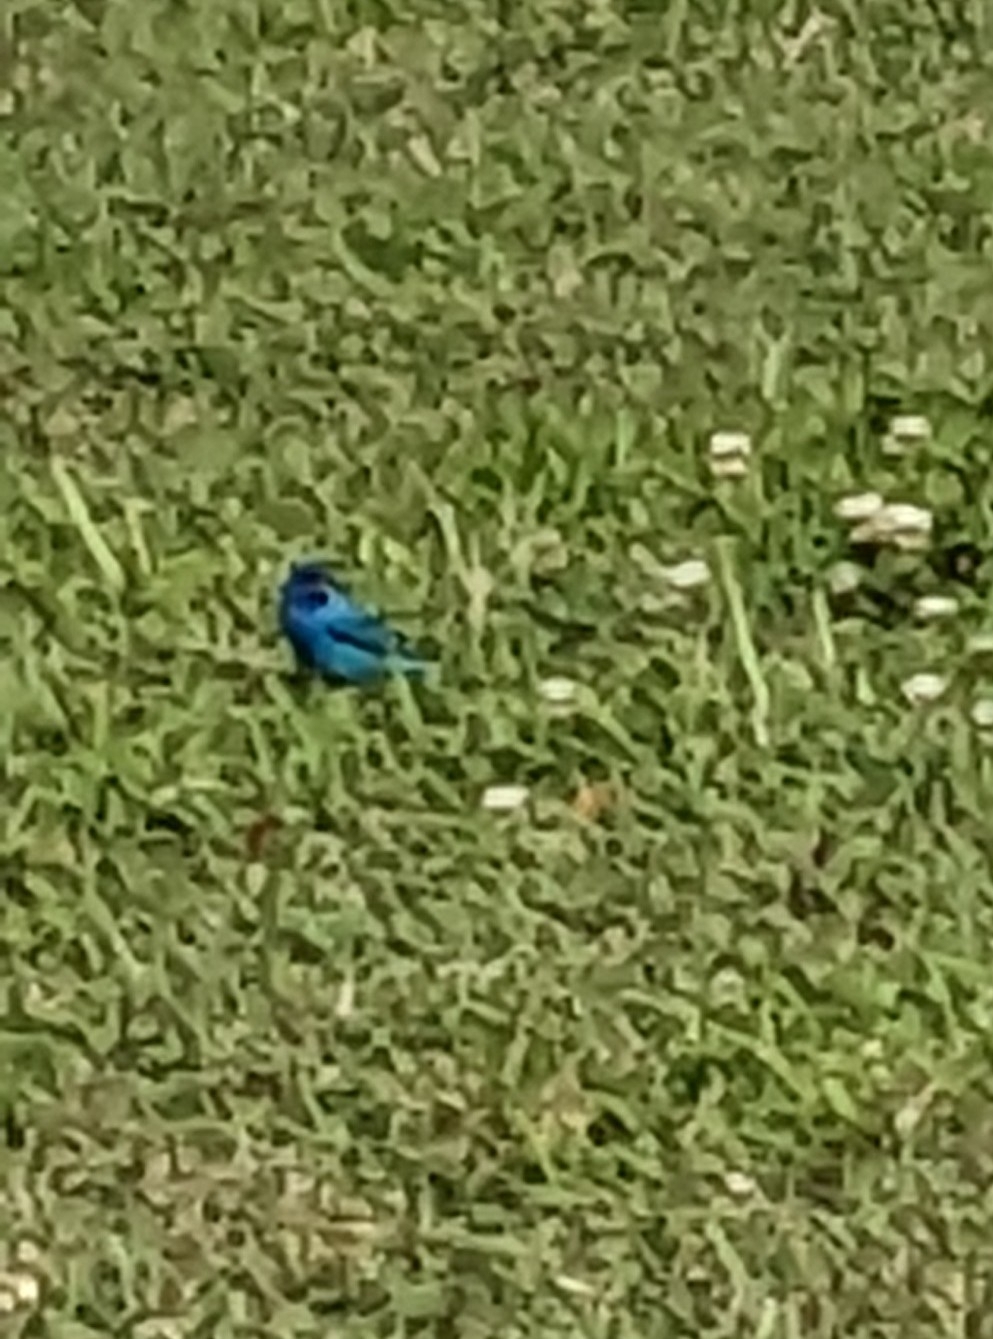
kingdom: Animalia
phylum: Chordata
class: Aves
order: Passeriformes
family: Cardinalidae
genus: Passerina
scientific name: Passerina cyanea
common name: Indigo bunting
